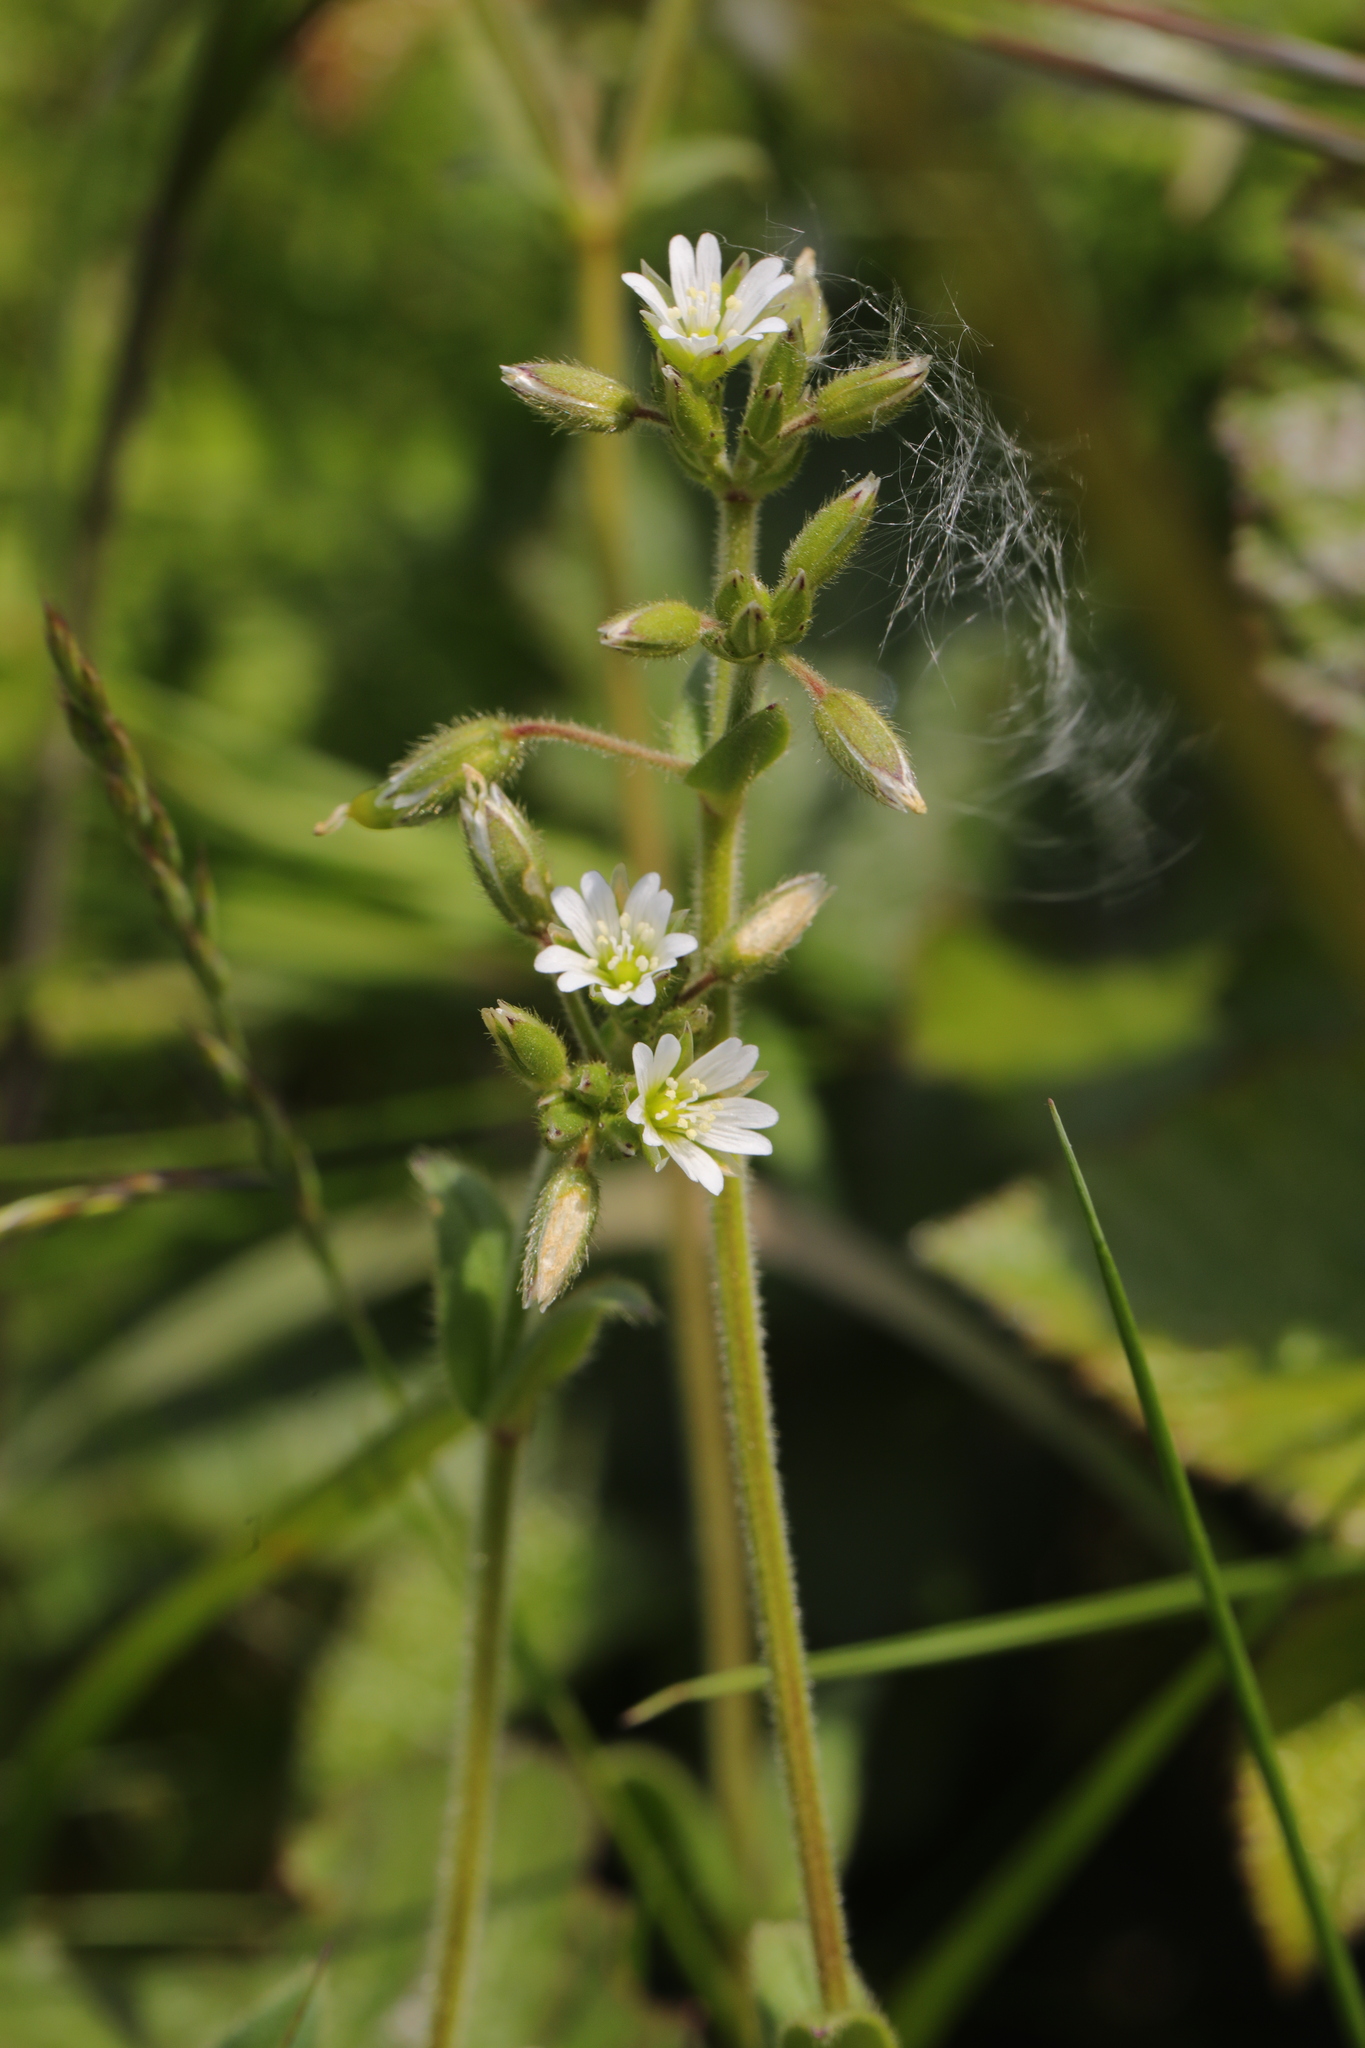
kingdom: Plantae
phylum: Tracheophyta
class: Magnoliopsida
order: Caryophyllales
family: Caryophyllaceae
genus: Cerastium
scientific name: Cerastium fontanum
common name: Common mouse-ear
